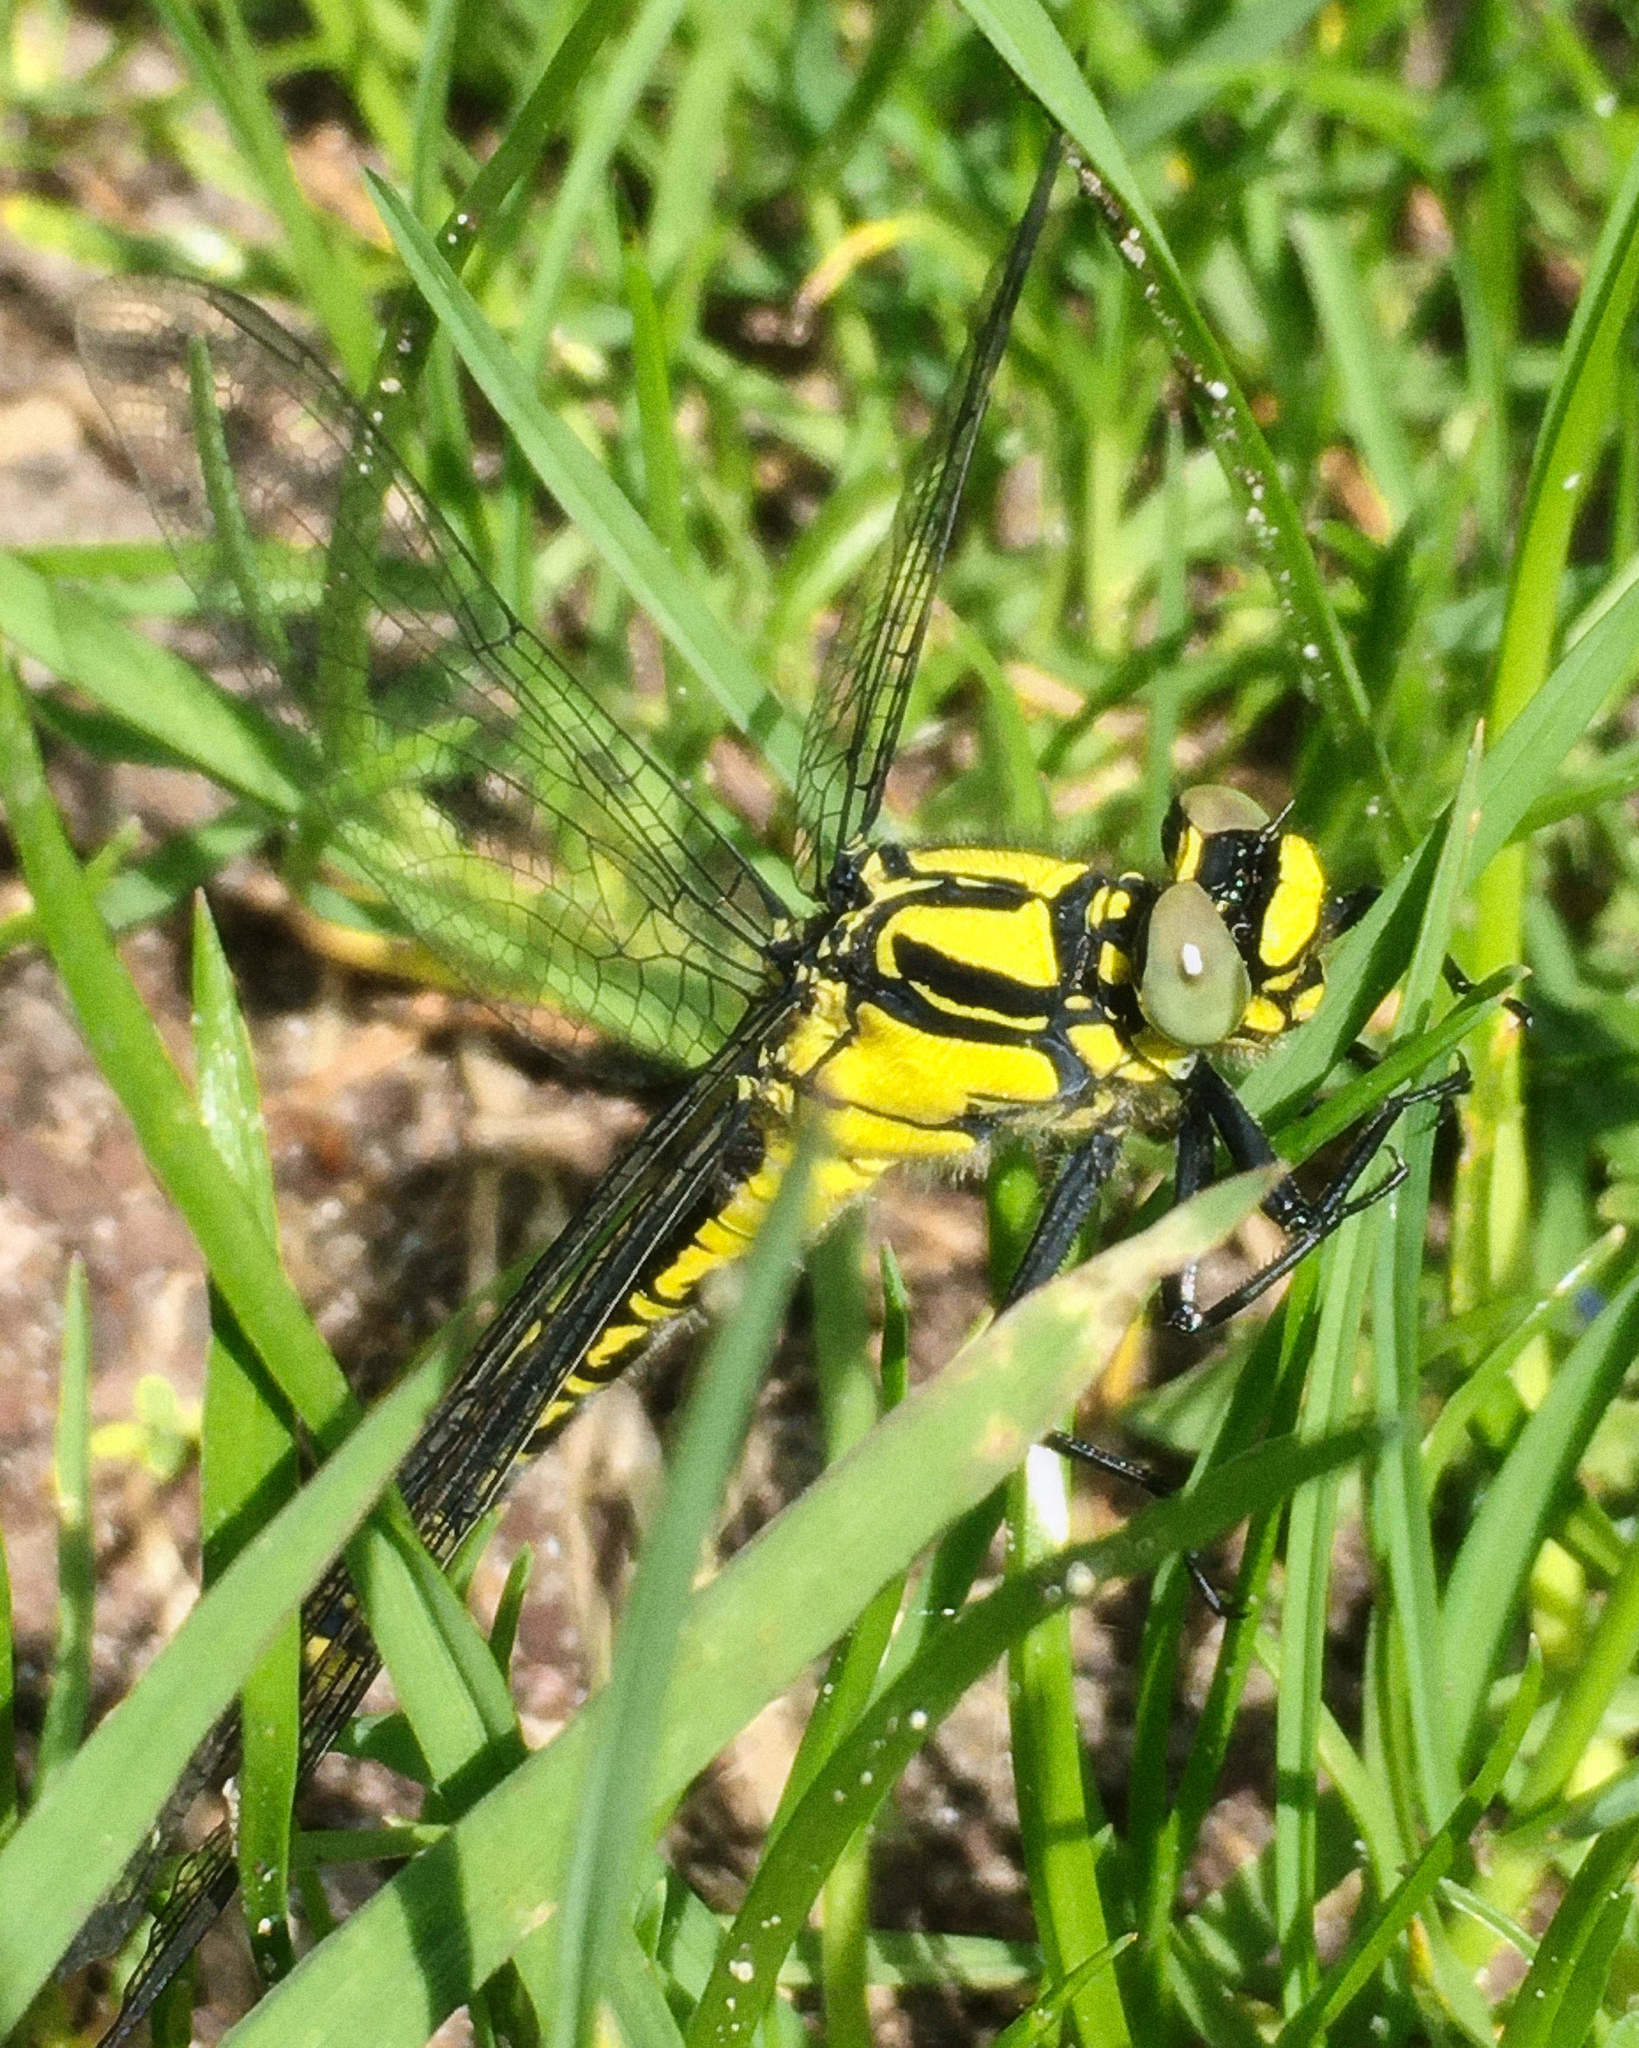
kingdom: Animalia
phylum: Arthropoda
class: Insecta
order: Odonata
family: Gomphidae
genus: Gomphus
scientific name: Gomphus vulgatissimus
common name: Club-tailed dragonfly
